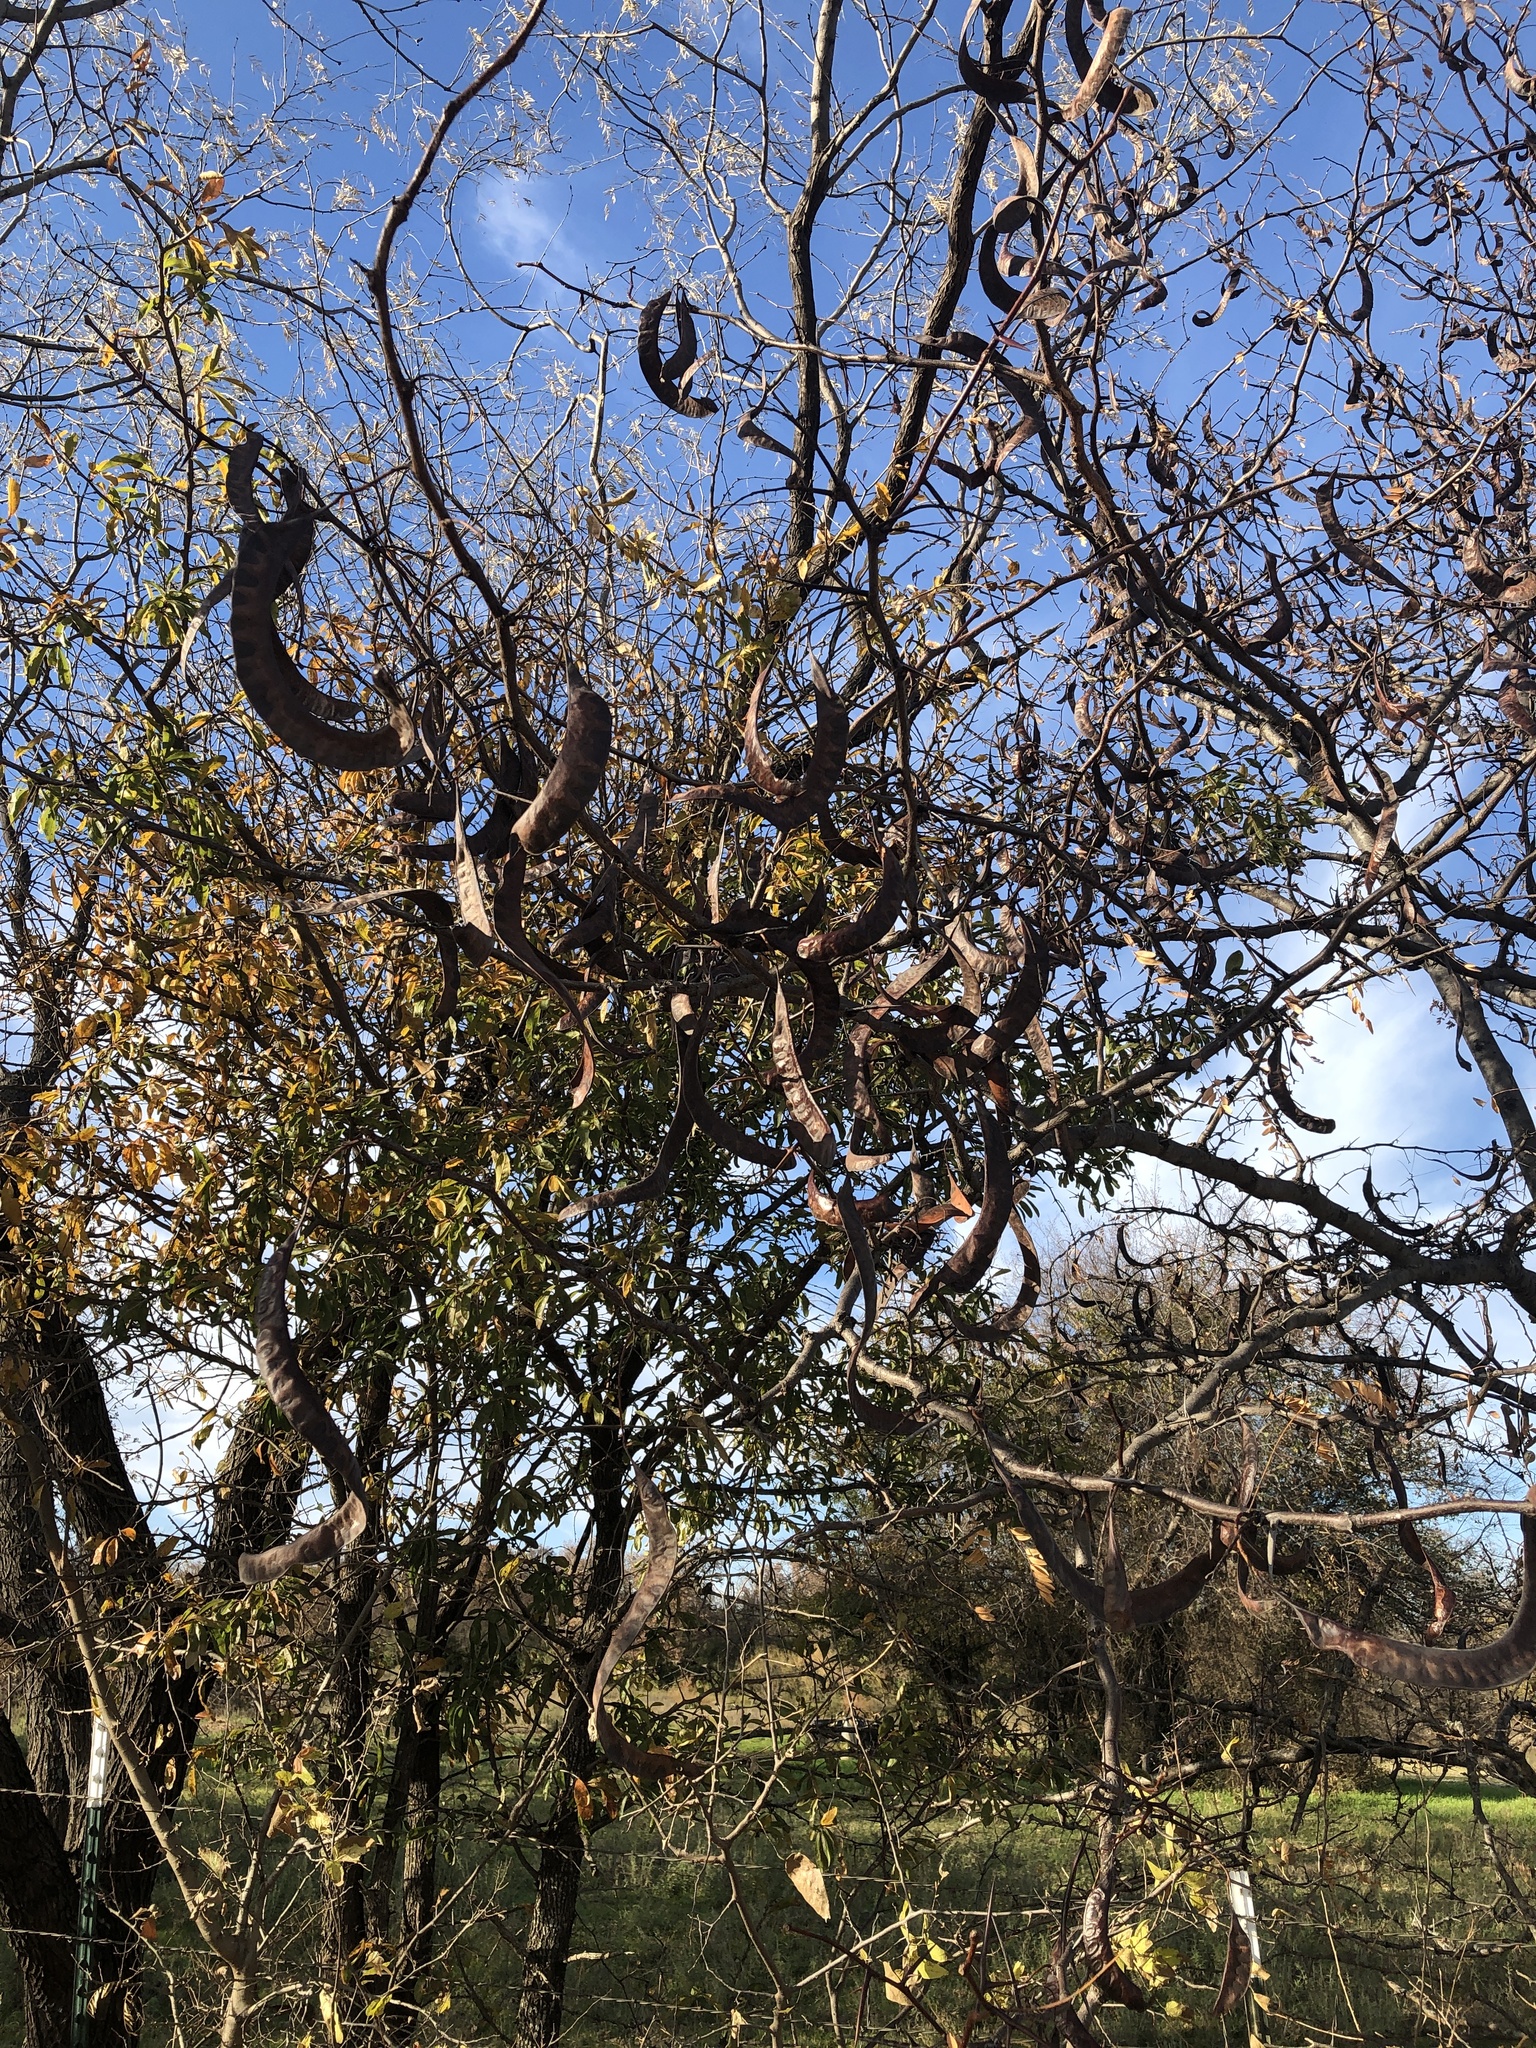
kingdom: Plantae
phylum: Tracheophyta
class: Magnoliopsida
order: Fabales
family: Fabaceae
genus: Gleditsia
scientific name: Gleditsia triacanthos
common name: Common honeylocust
